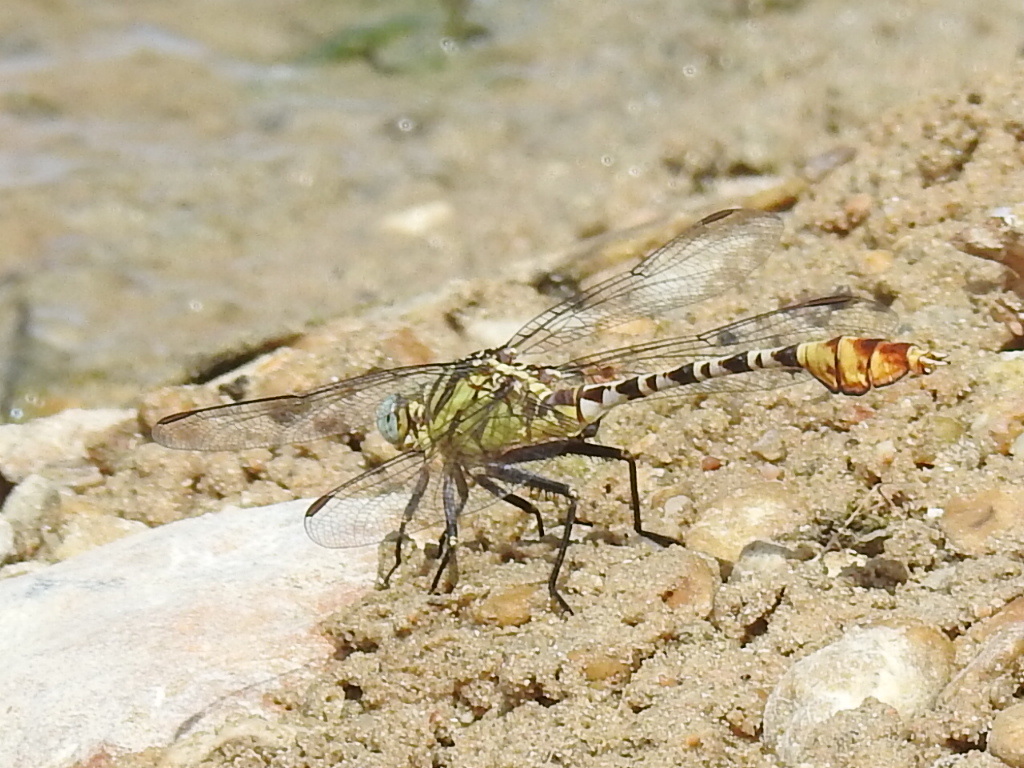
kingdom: Animalia
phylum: Arthropoda
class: Insecta
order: Odonata
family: Gomphidae
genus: Dromogomphus
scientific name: Dromogomphus spoliatus
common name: Flag-tailed spinyleg
